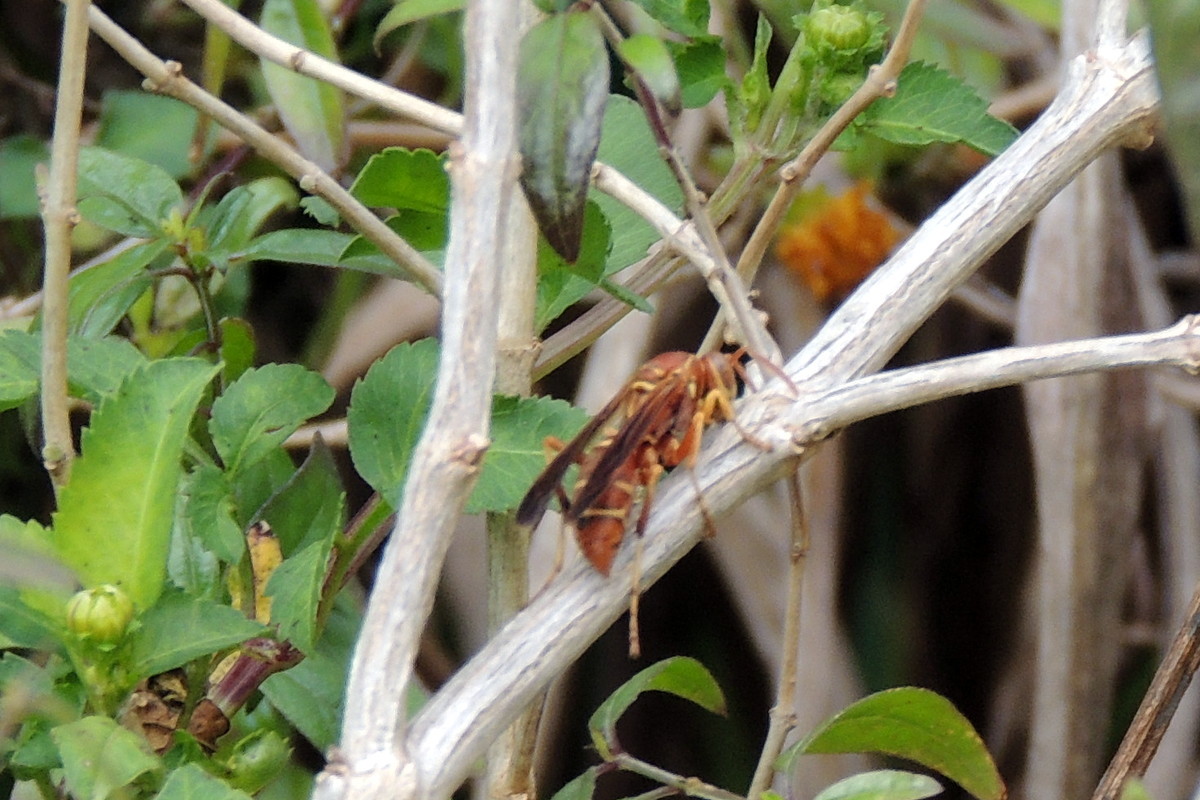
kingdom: Animalia
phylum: Arthropoda
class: Insecta
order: Hymenoptera
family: Eumenidae
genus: Polistes
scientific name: Polistes bellicosus
